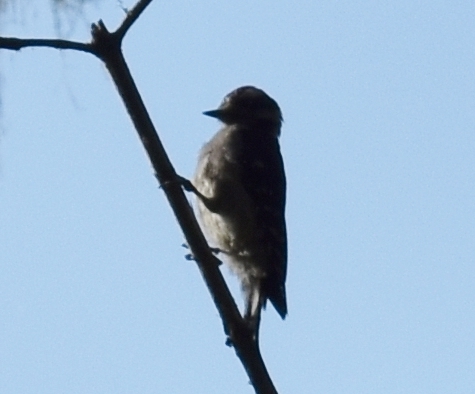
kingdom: Animalia
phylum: Chordata
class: Aves
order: Piciformes
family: Picidae
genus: Dryobates
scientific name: Dryobates pubescens
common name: Downy woodpecker
